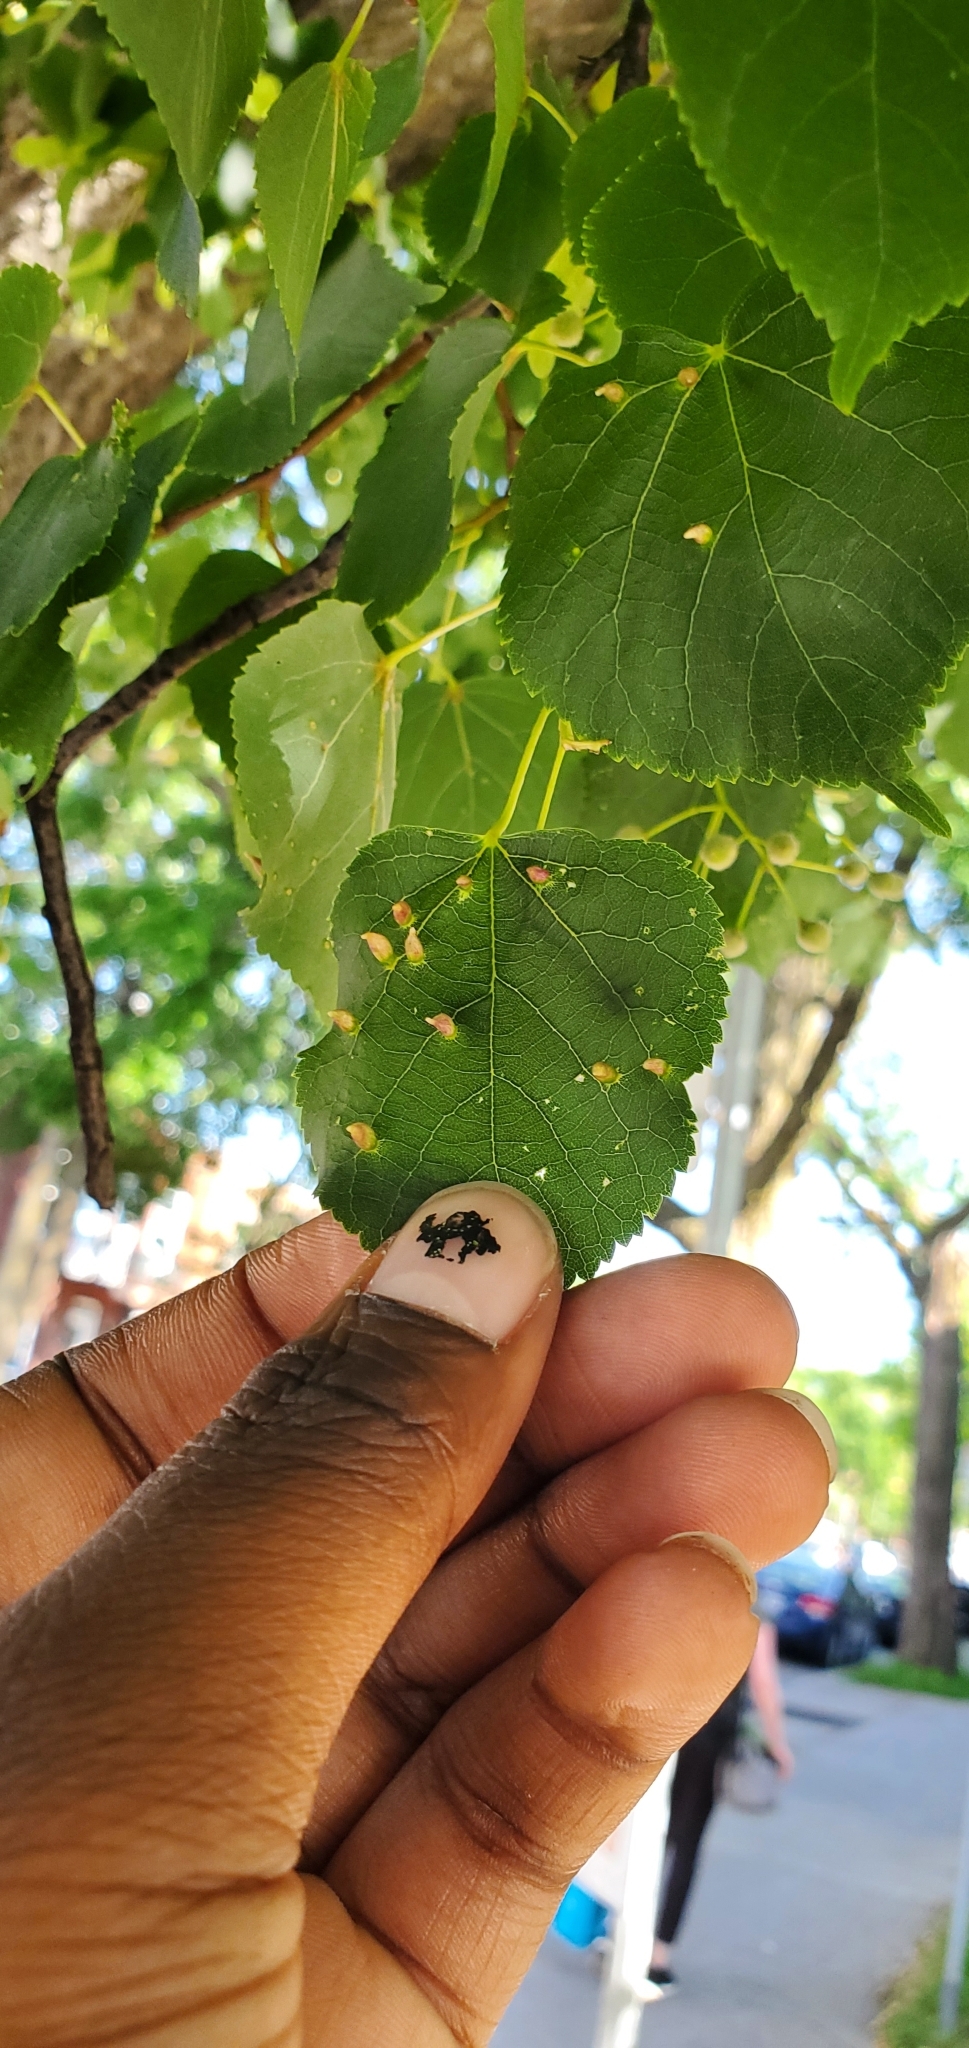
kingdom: Animalia
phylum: Arthropoda
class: Arachnida
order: Trombidiformes
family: Eriophyidae
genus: Eriophyes
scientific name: Eriophyes tiliae
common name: Red nail gall mite
